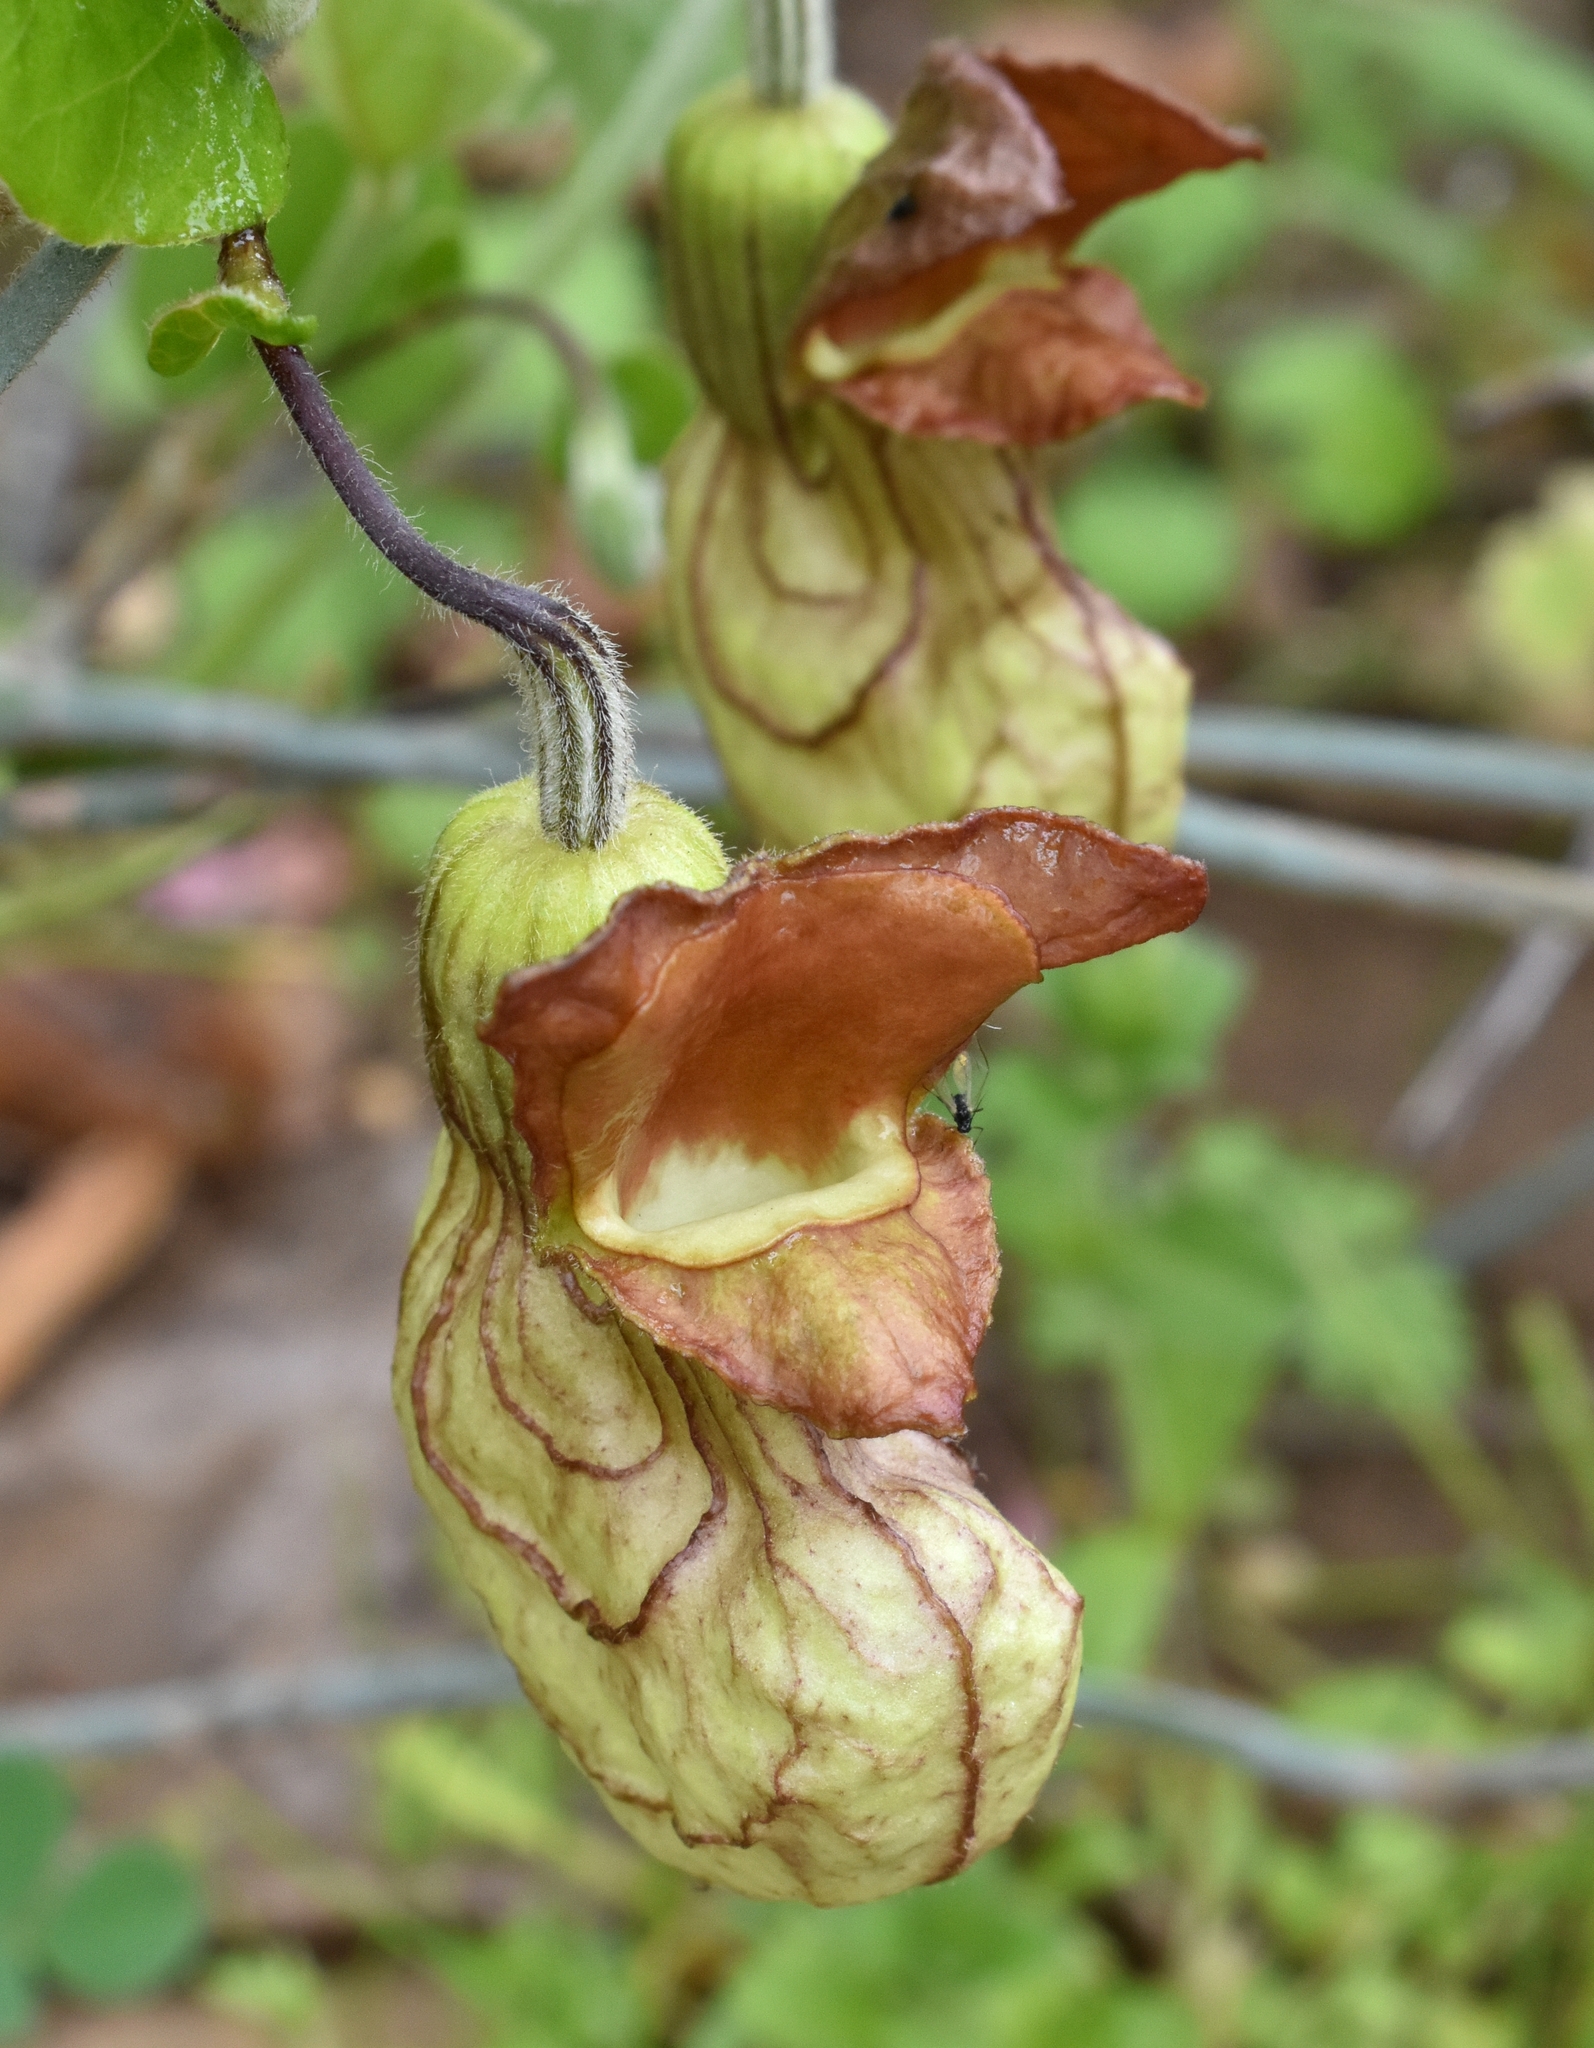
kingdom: Plantae
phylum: Tracheophyta
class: Magnoliopsida
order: Piperales
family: Aristolochiaceae
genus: Isotrema
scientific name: Isotrema californicum
